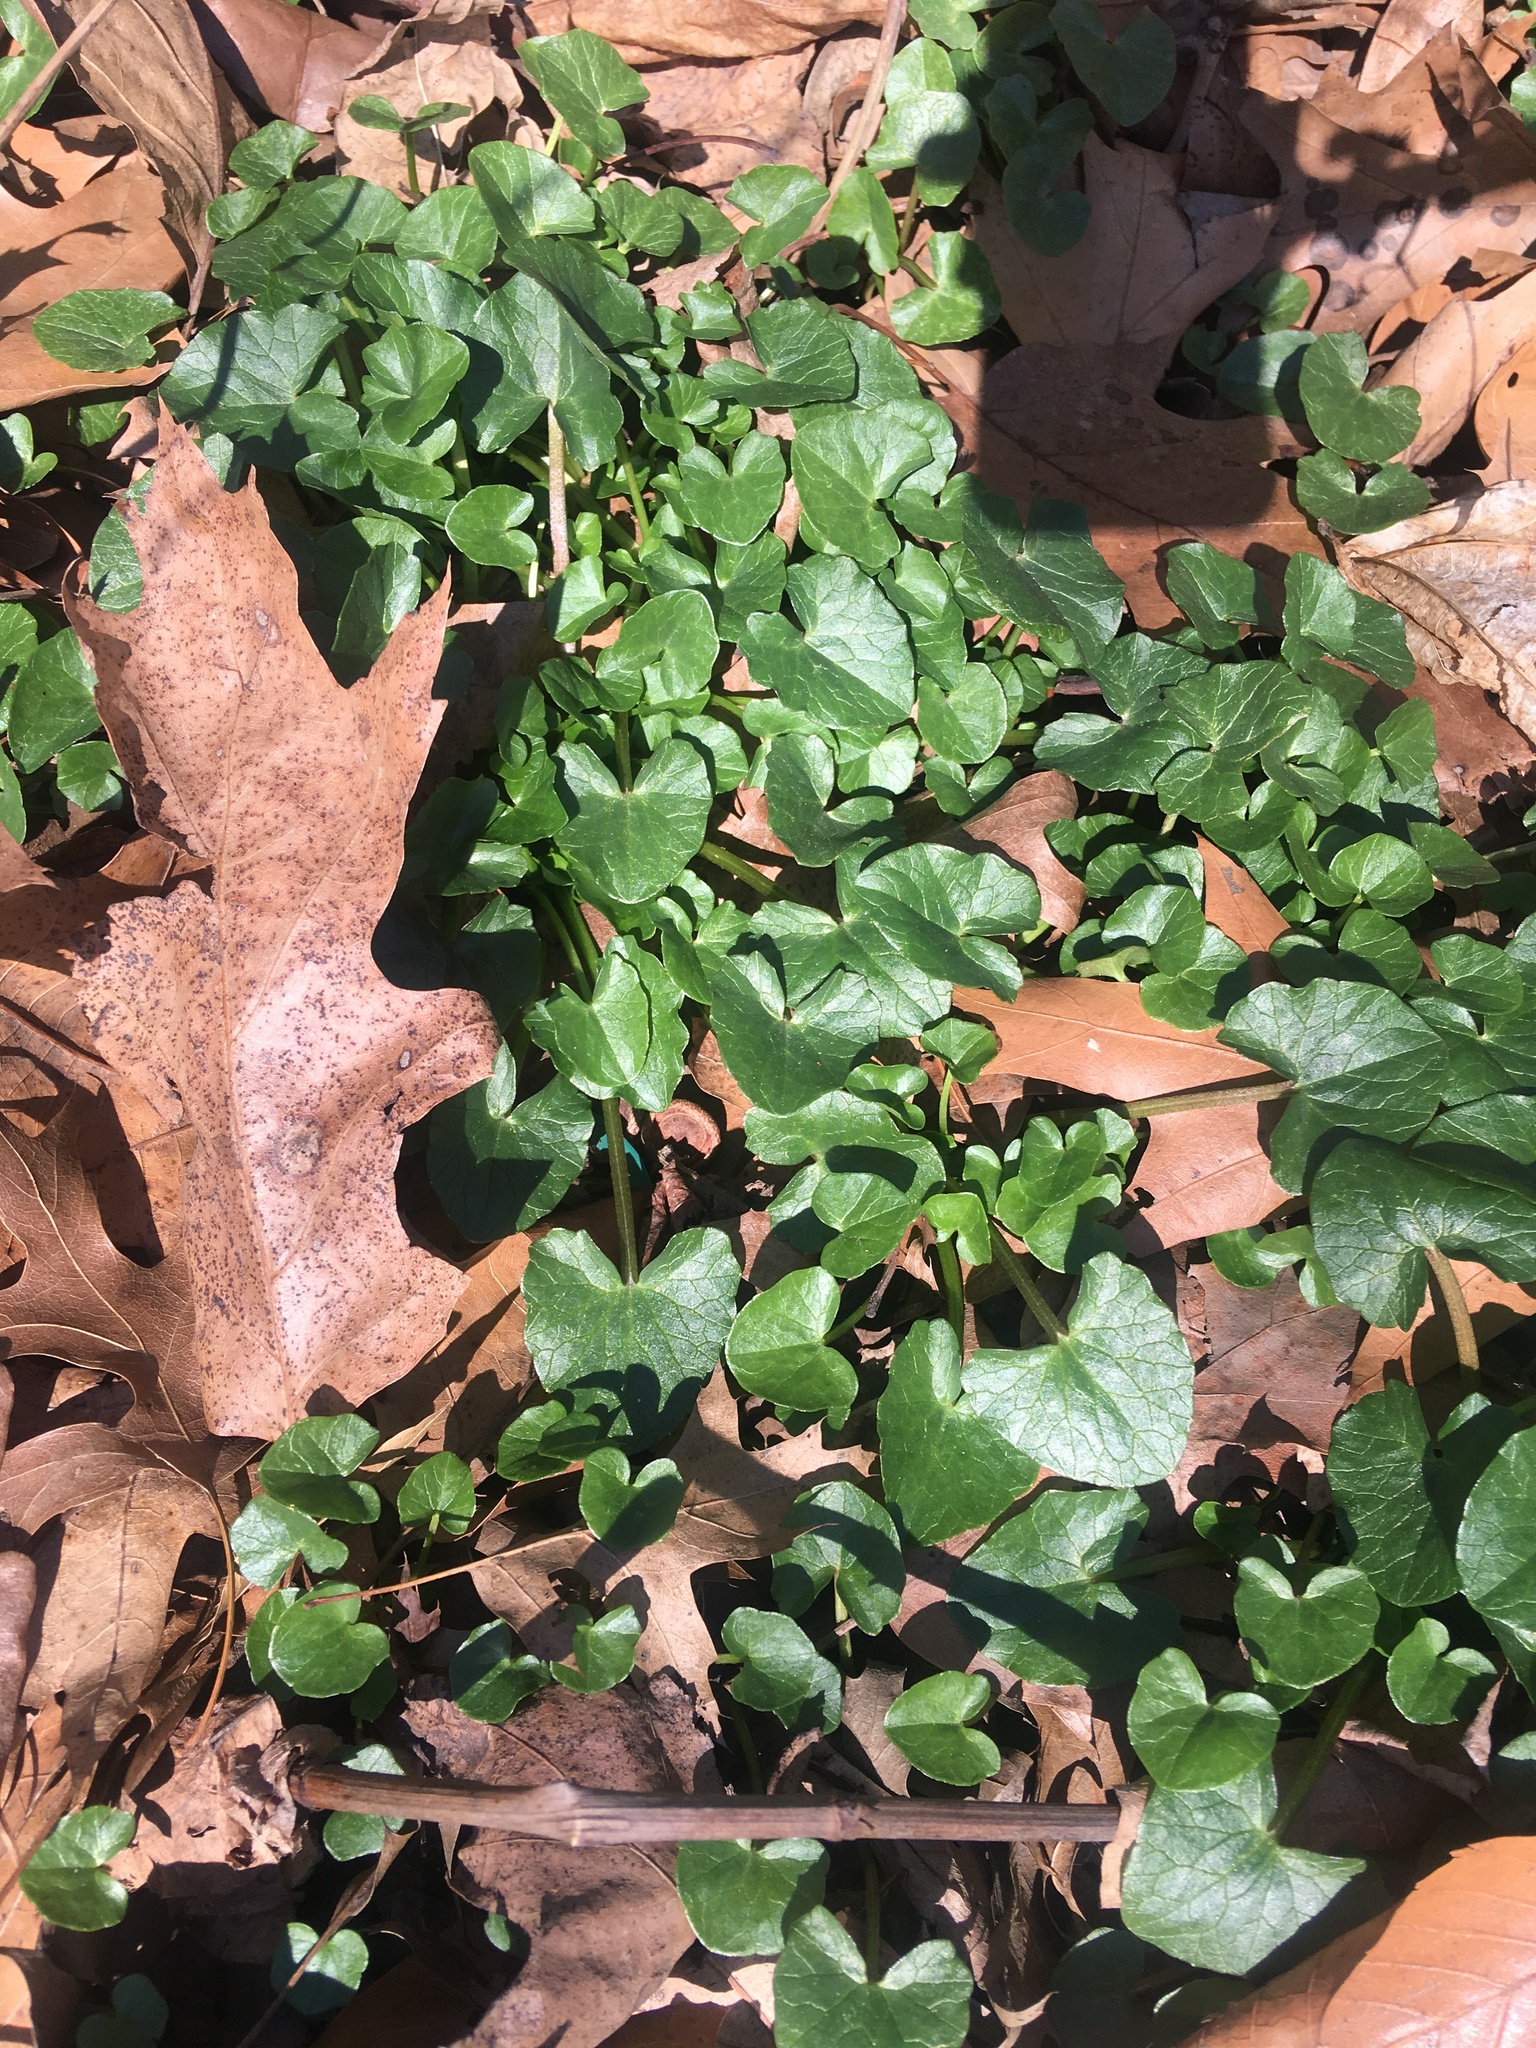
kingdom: Plantae
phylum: Tracheophyta
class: Magnoliopsida
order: Ranunculales
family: Ranunculaceae
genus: Ficaria
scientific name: Ficaria verna
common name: Lesser celandine
